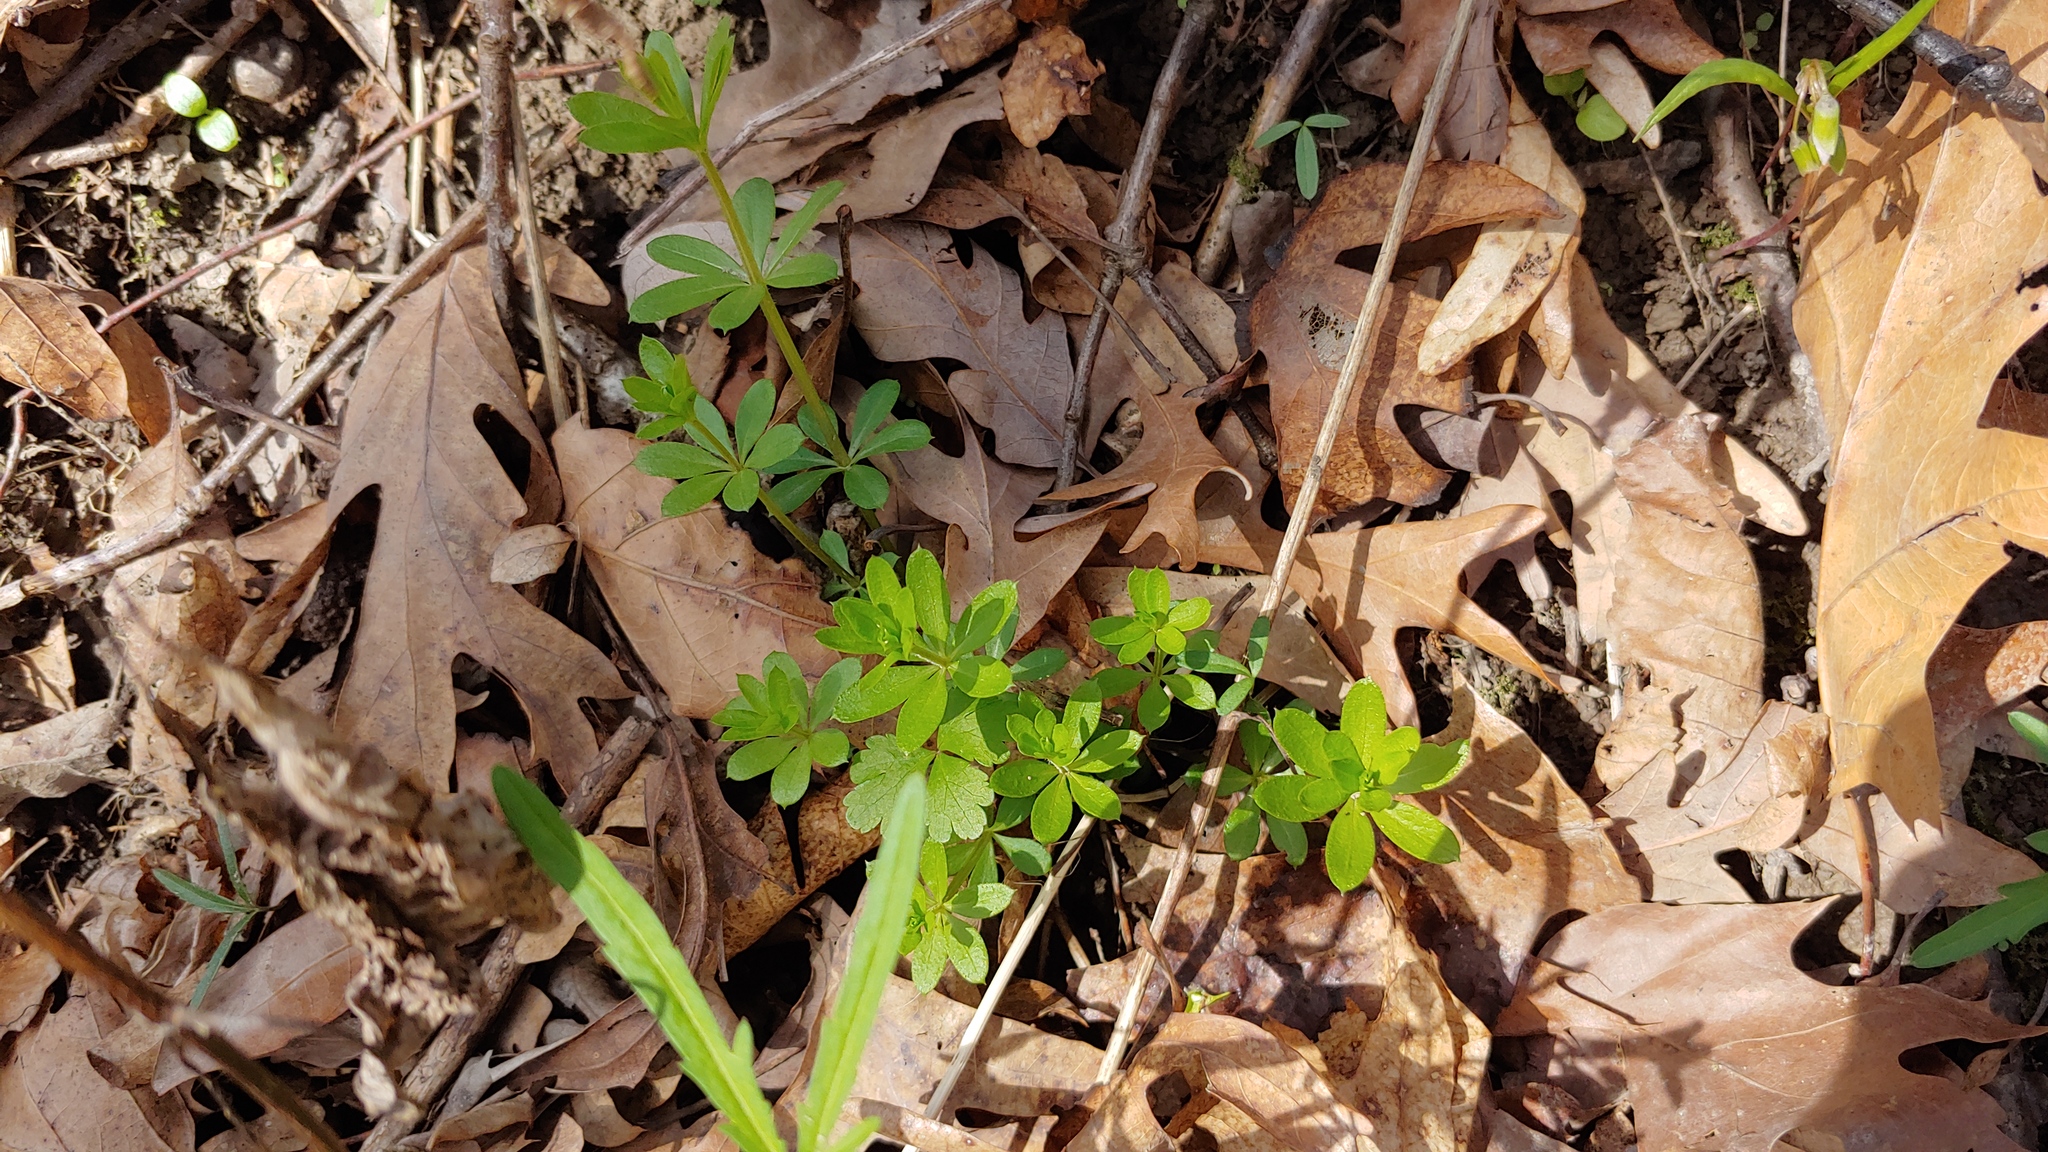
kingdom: Plantae
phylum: Tracheophyta
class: Magnoliopsida
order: Gentianales
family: Rubiaceae
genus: Galium
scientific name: Galium triflorum
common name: Fragrant bedstraw
